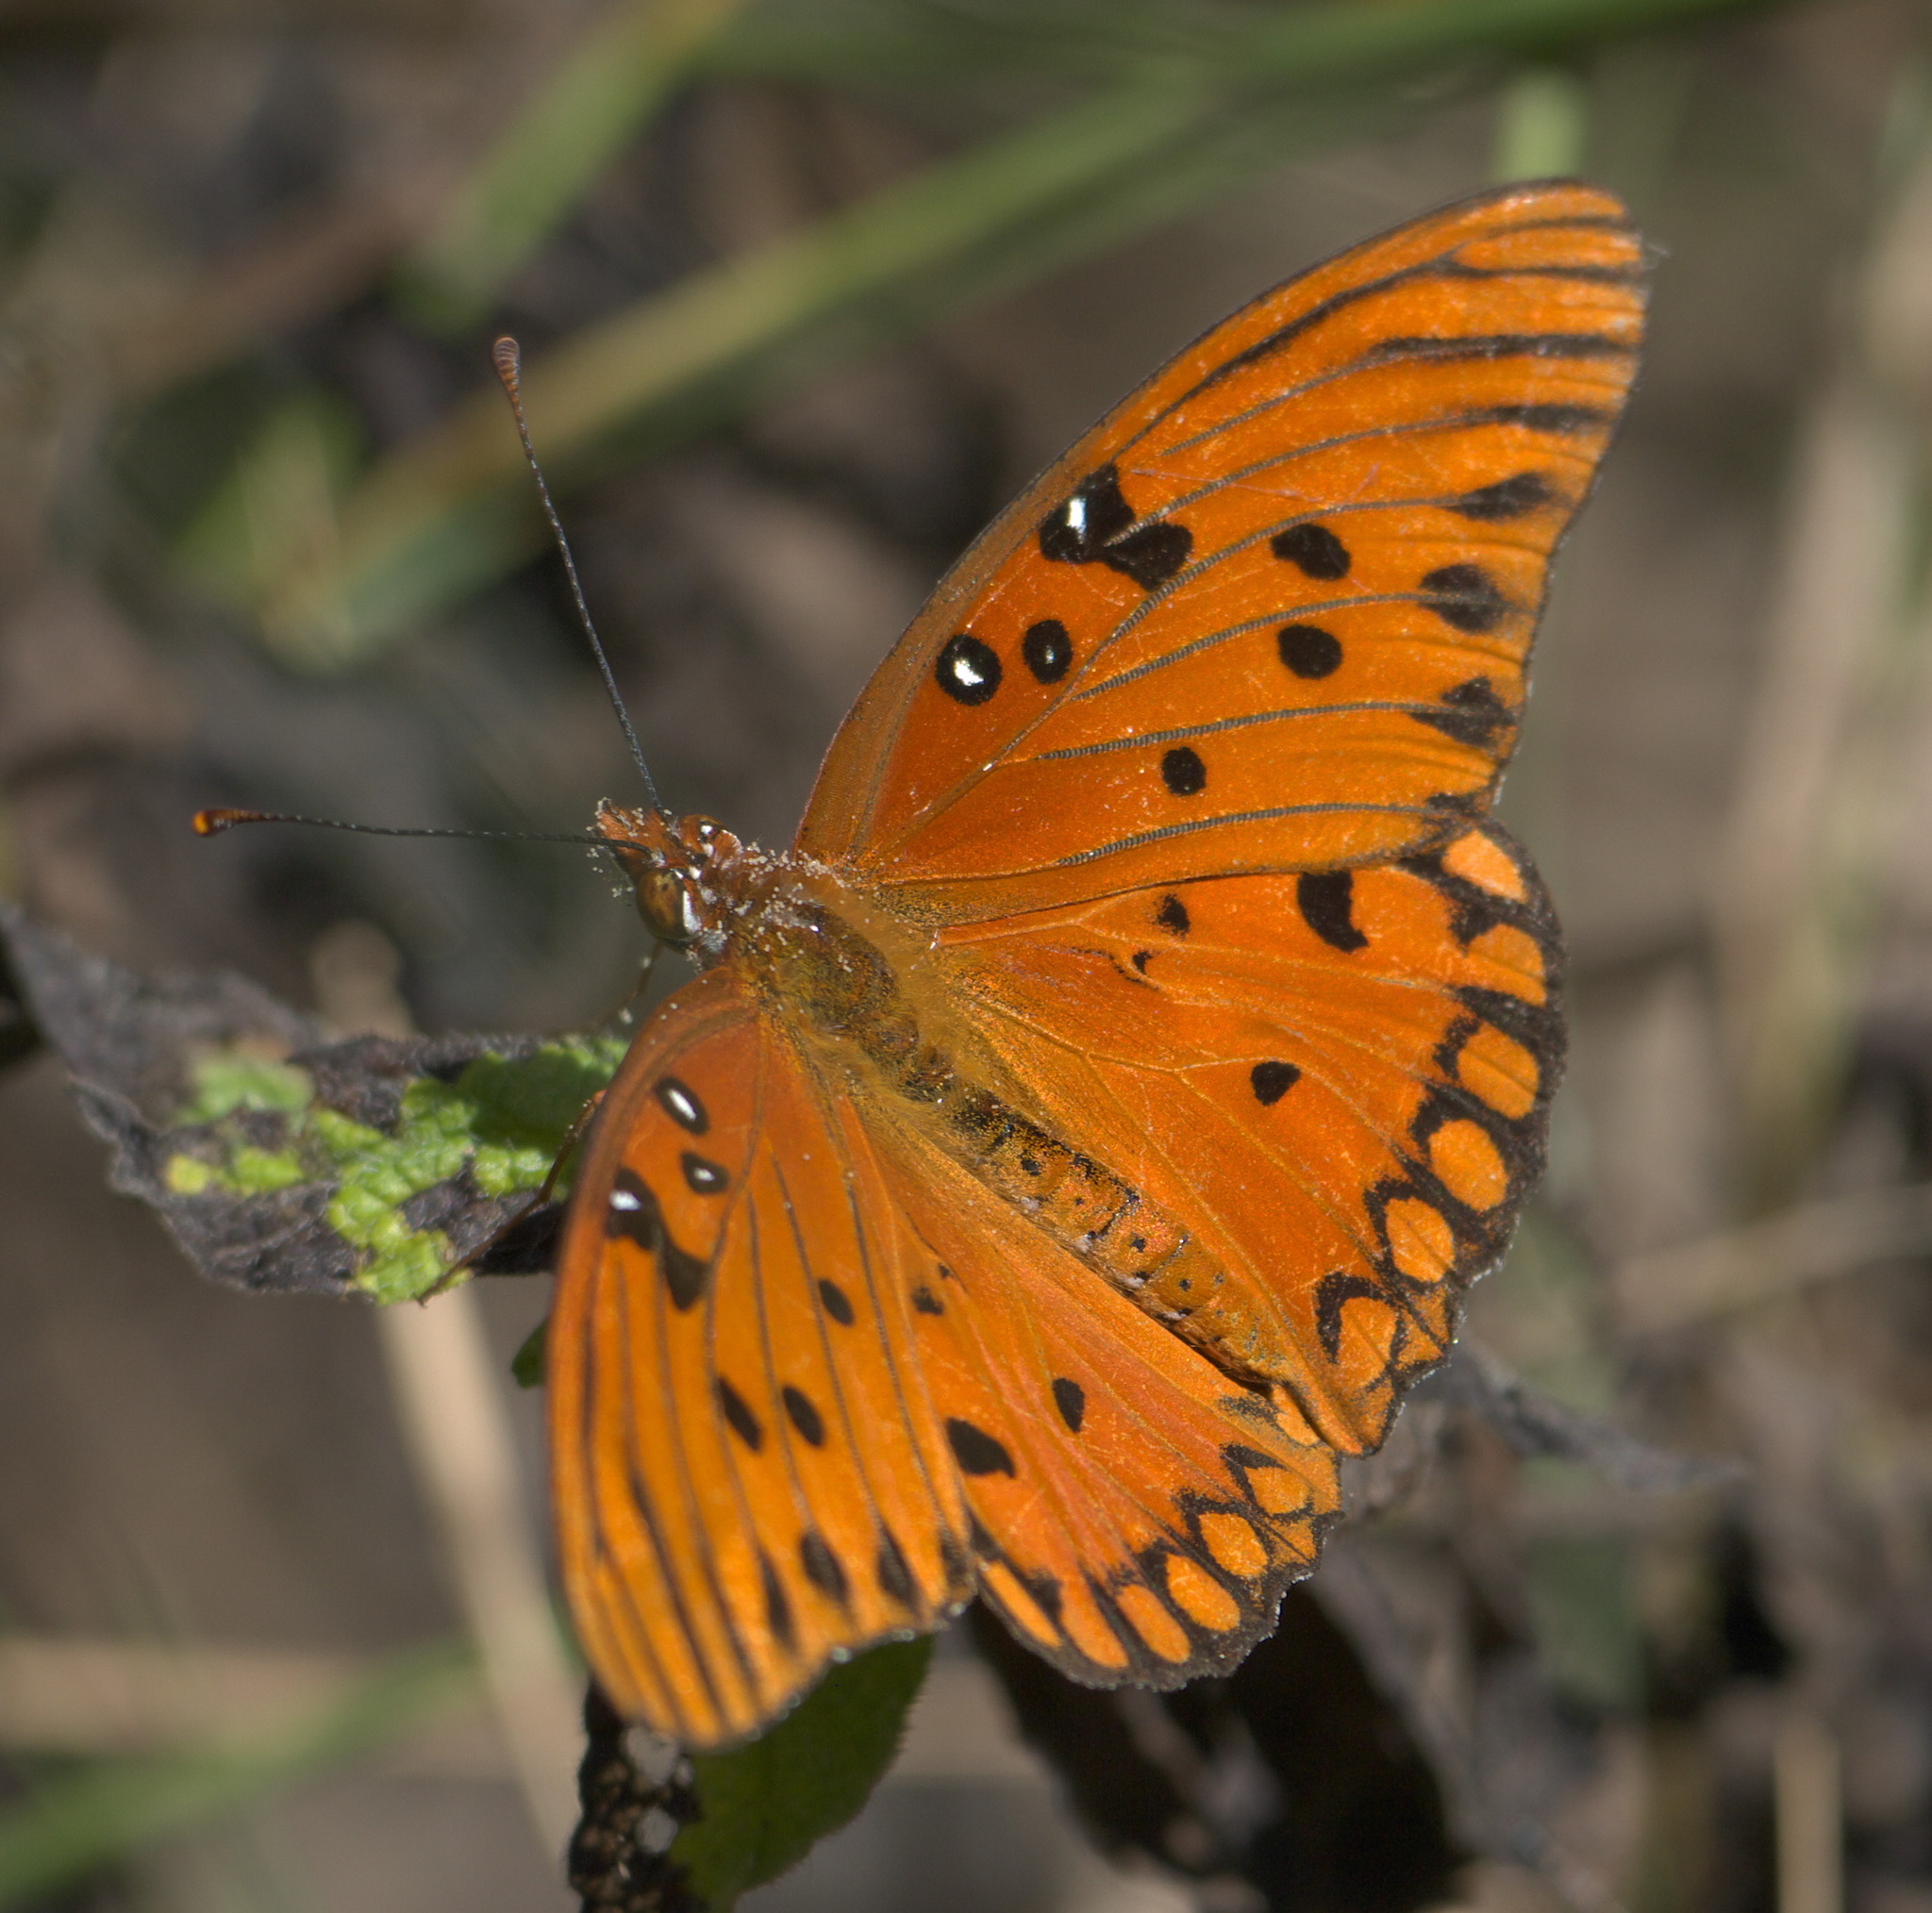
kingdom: Animalia
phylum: Arthropoda
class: Insecta
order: Lepidoptera
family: Nymphalidae
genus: Dione
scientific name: Dione vanillae
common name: Gulf fritillary
